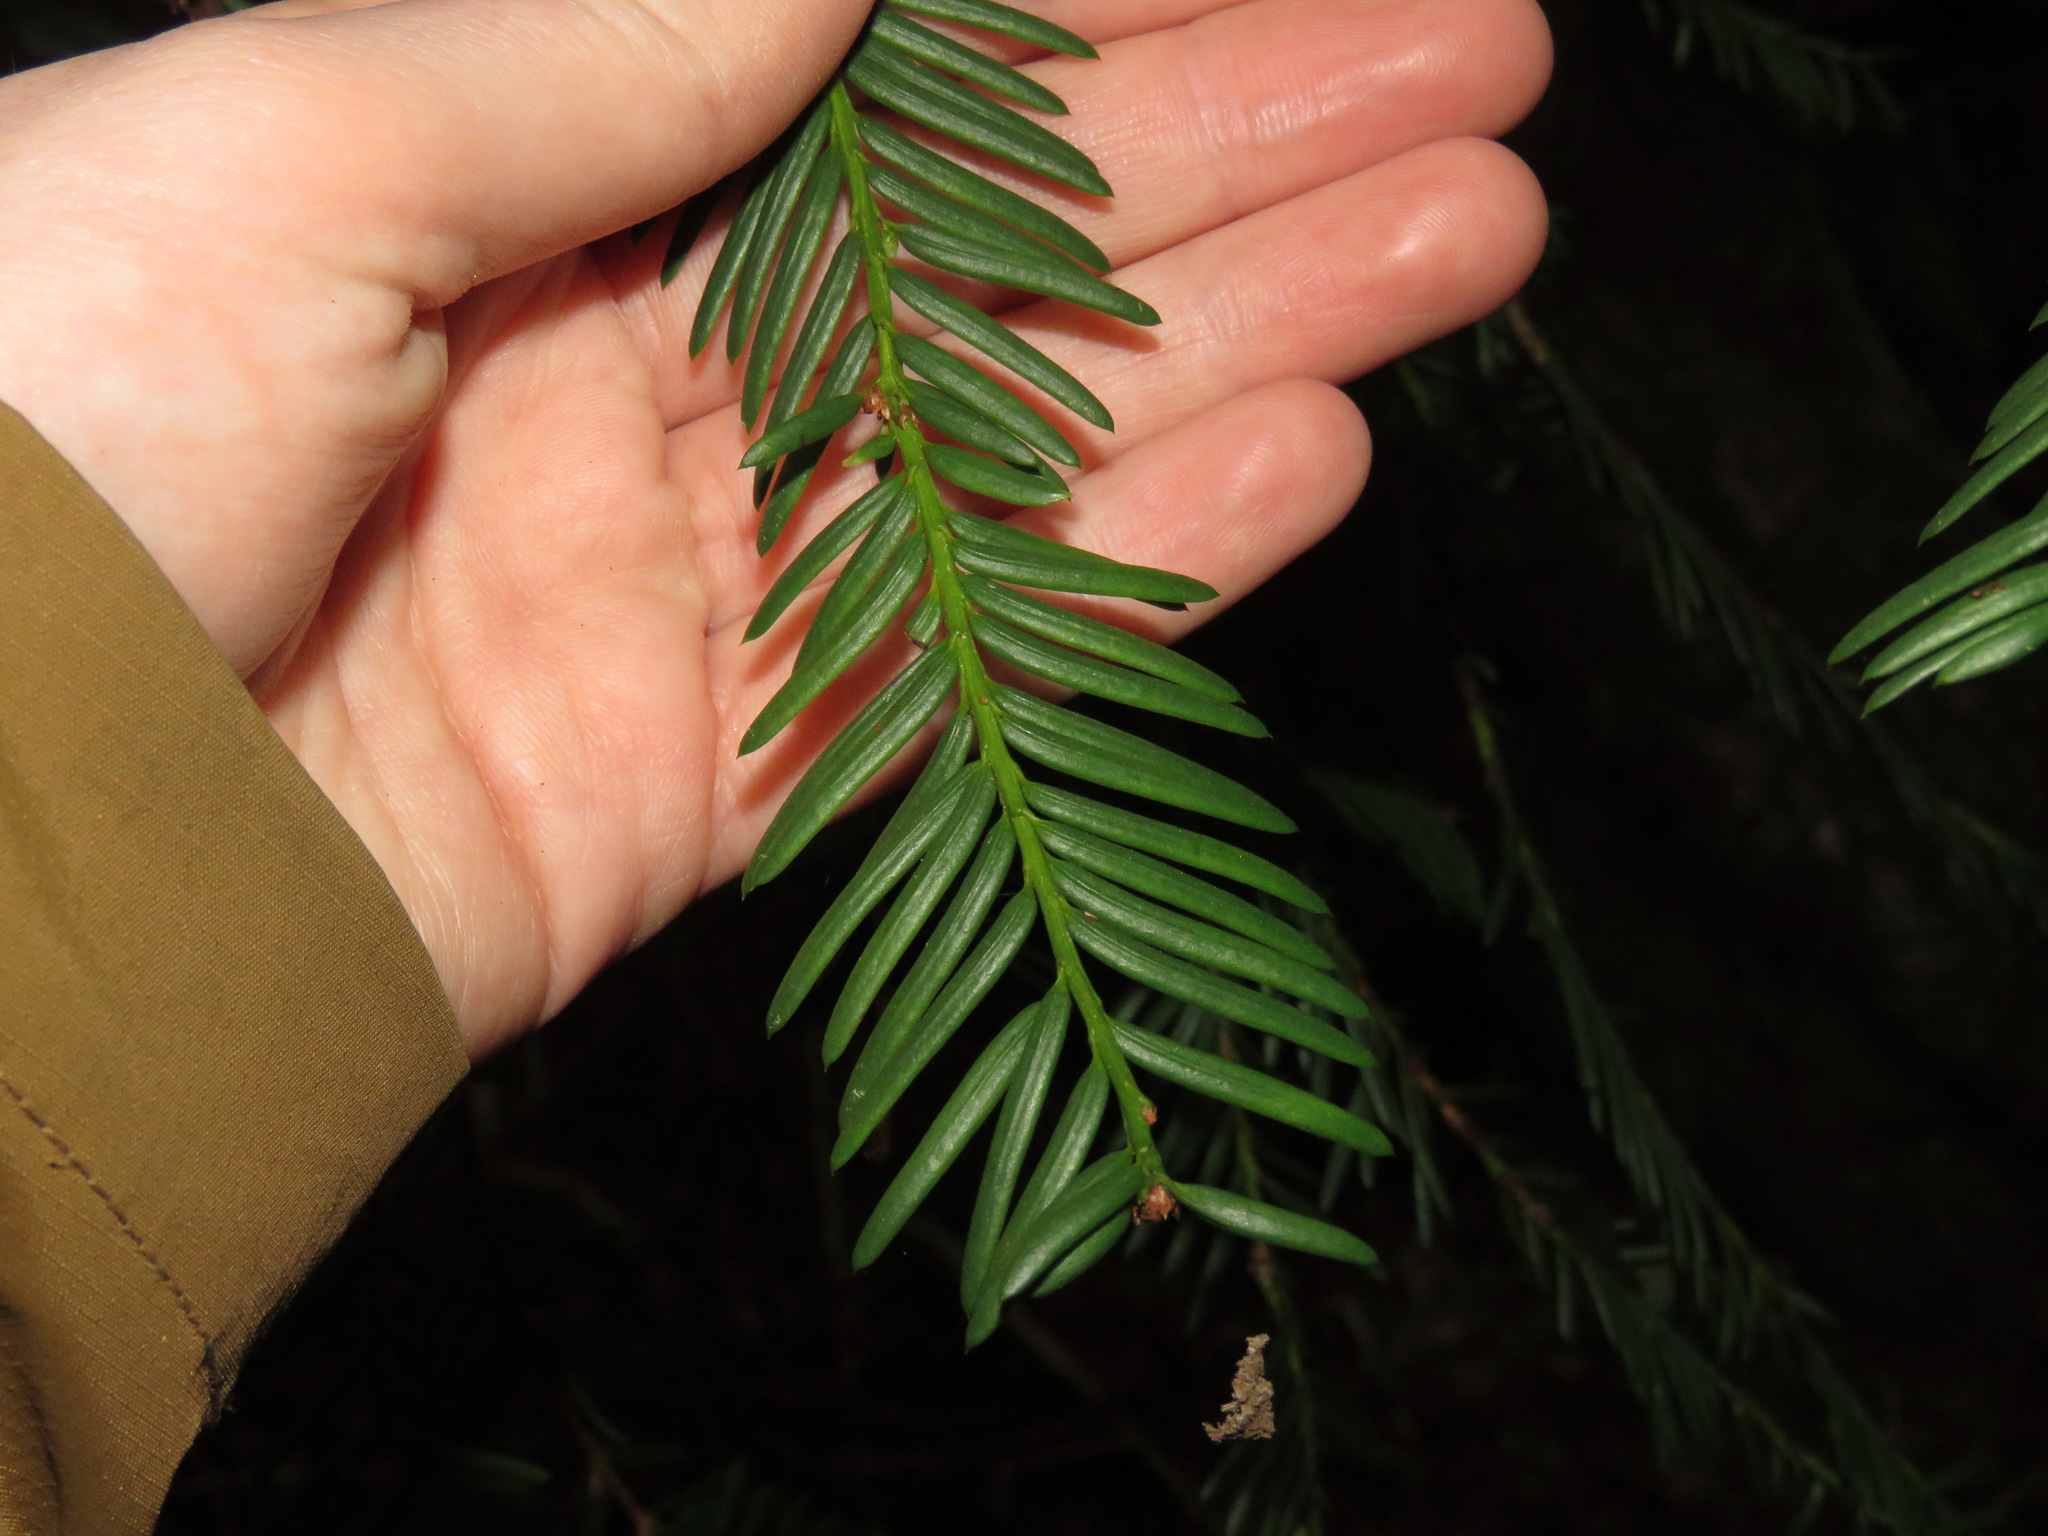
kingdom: Plantae
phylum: Tracheophyta
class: Pinopsida
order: Pinales
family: Taxaceae
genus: Taxus
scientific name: Taxus brevifolia
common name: Pacific yew
